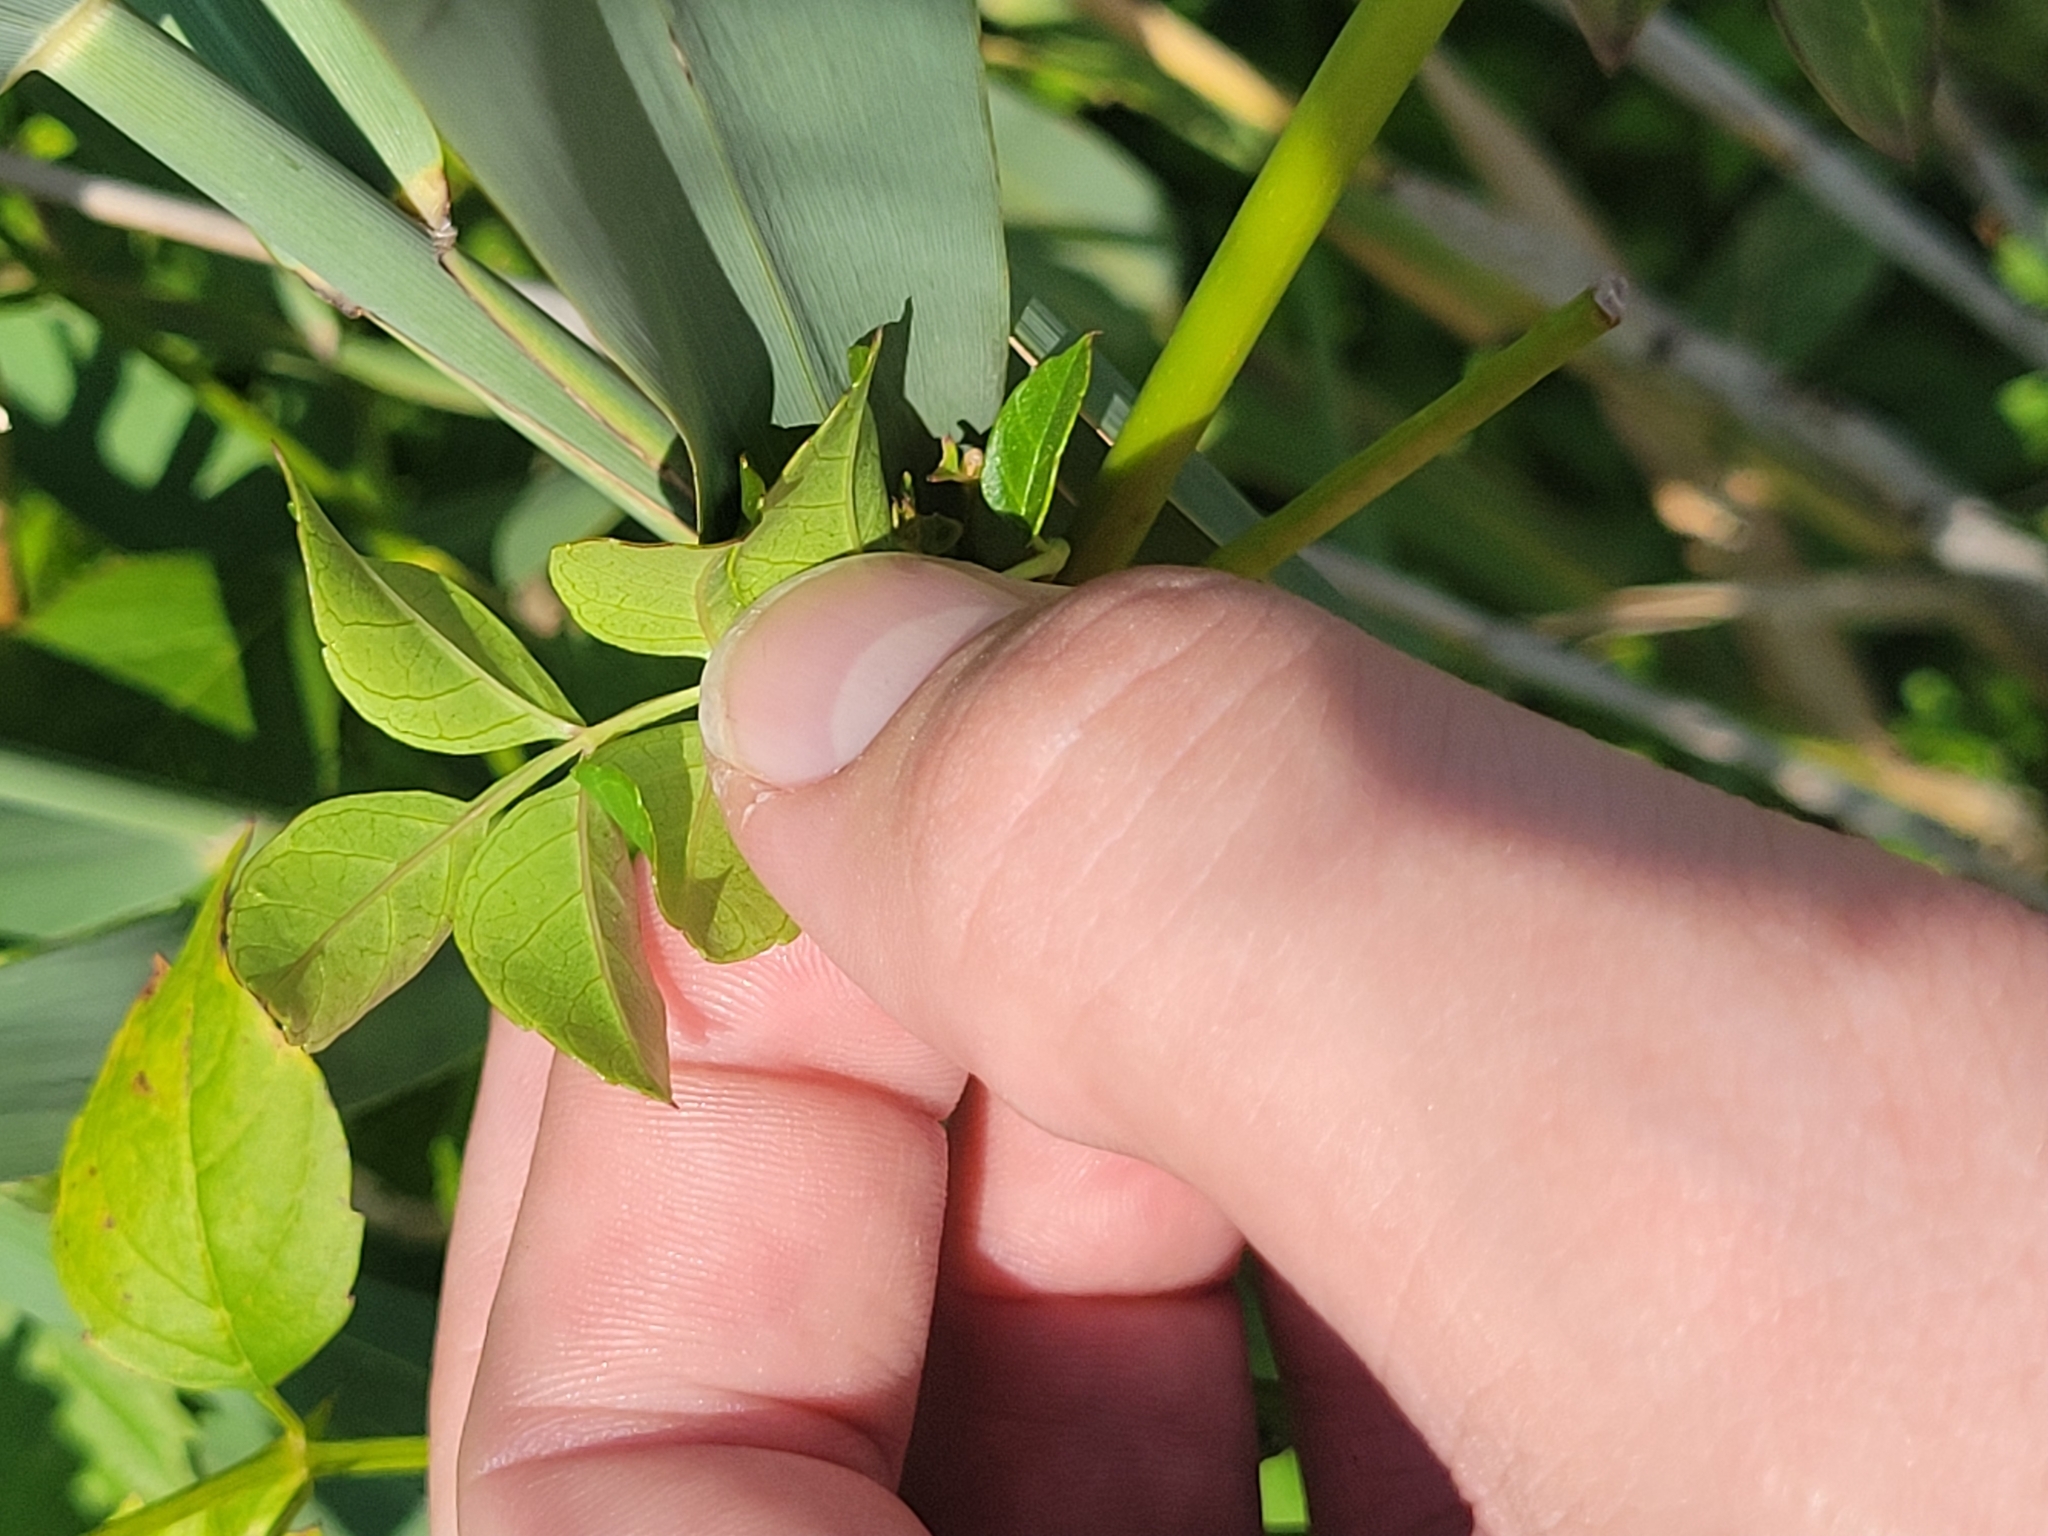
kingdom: Plantae
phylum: Tracheophyta
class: Magnoliopsida
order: Lamiales
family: Bignoniaceae
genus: Campsis
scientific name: Campsis radicans
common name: Trumpet-creeper
